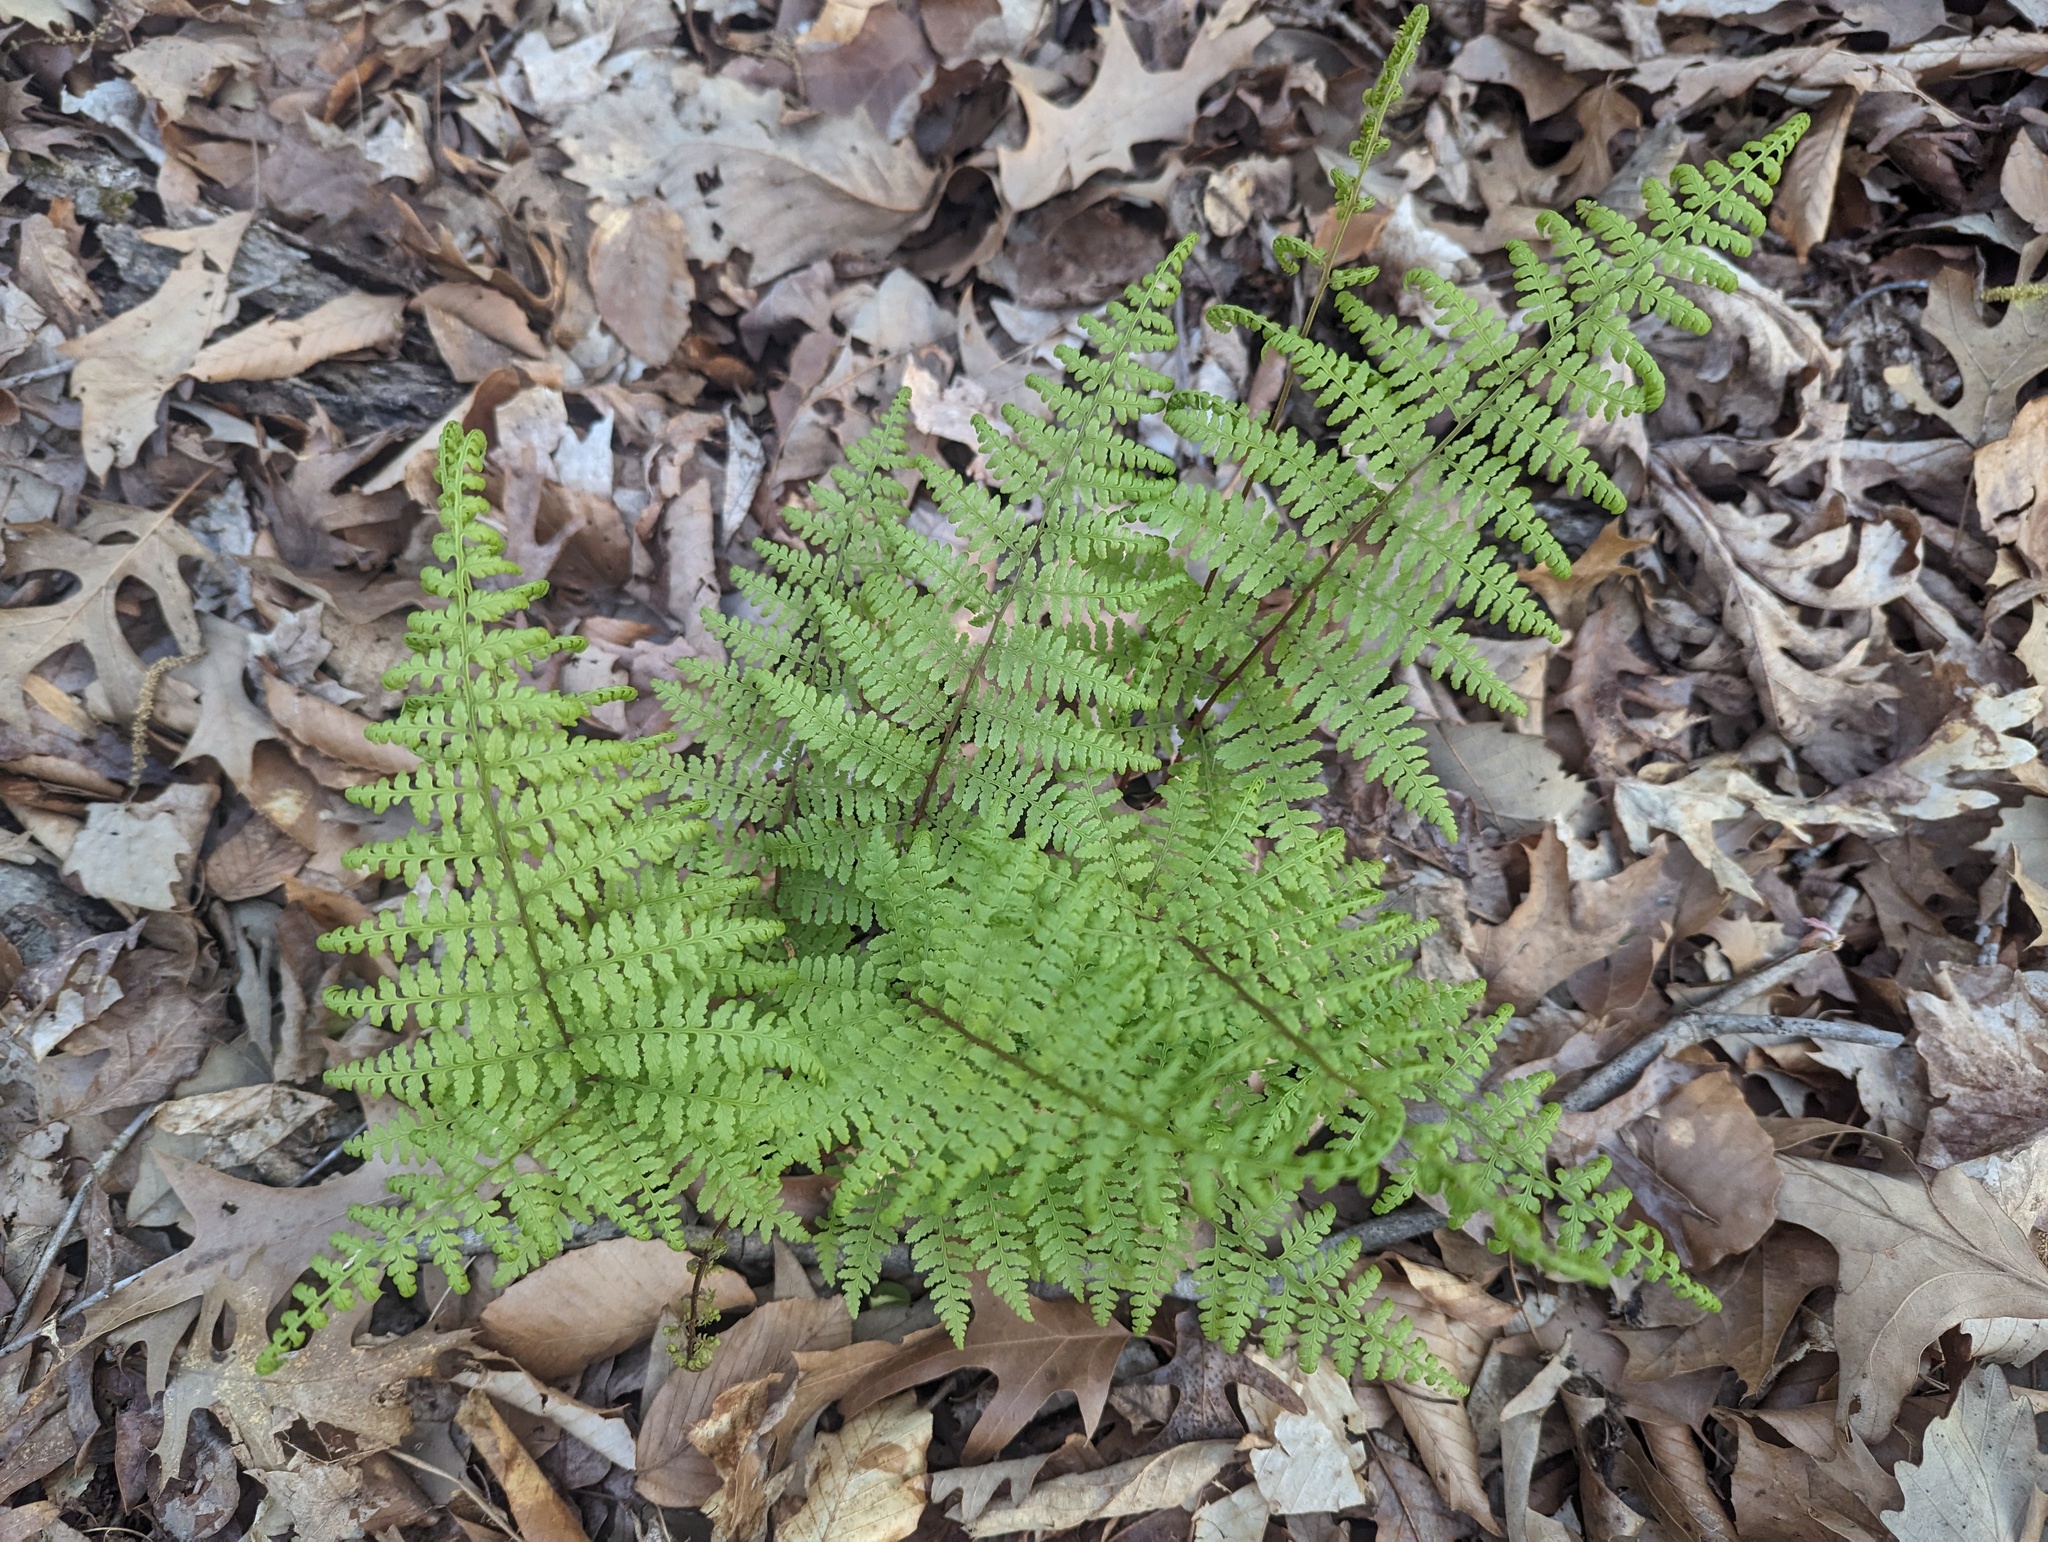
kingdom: Plantae
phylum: Tracheophyta
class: Polypodiopsida
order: Polypodiales
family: Athyriaceae
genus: Athyrium
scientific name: Athyrium asplenioides
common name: Southern lady fern
